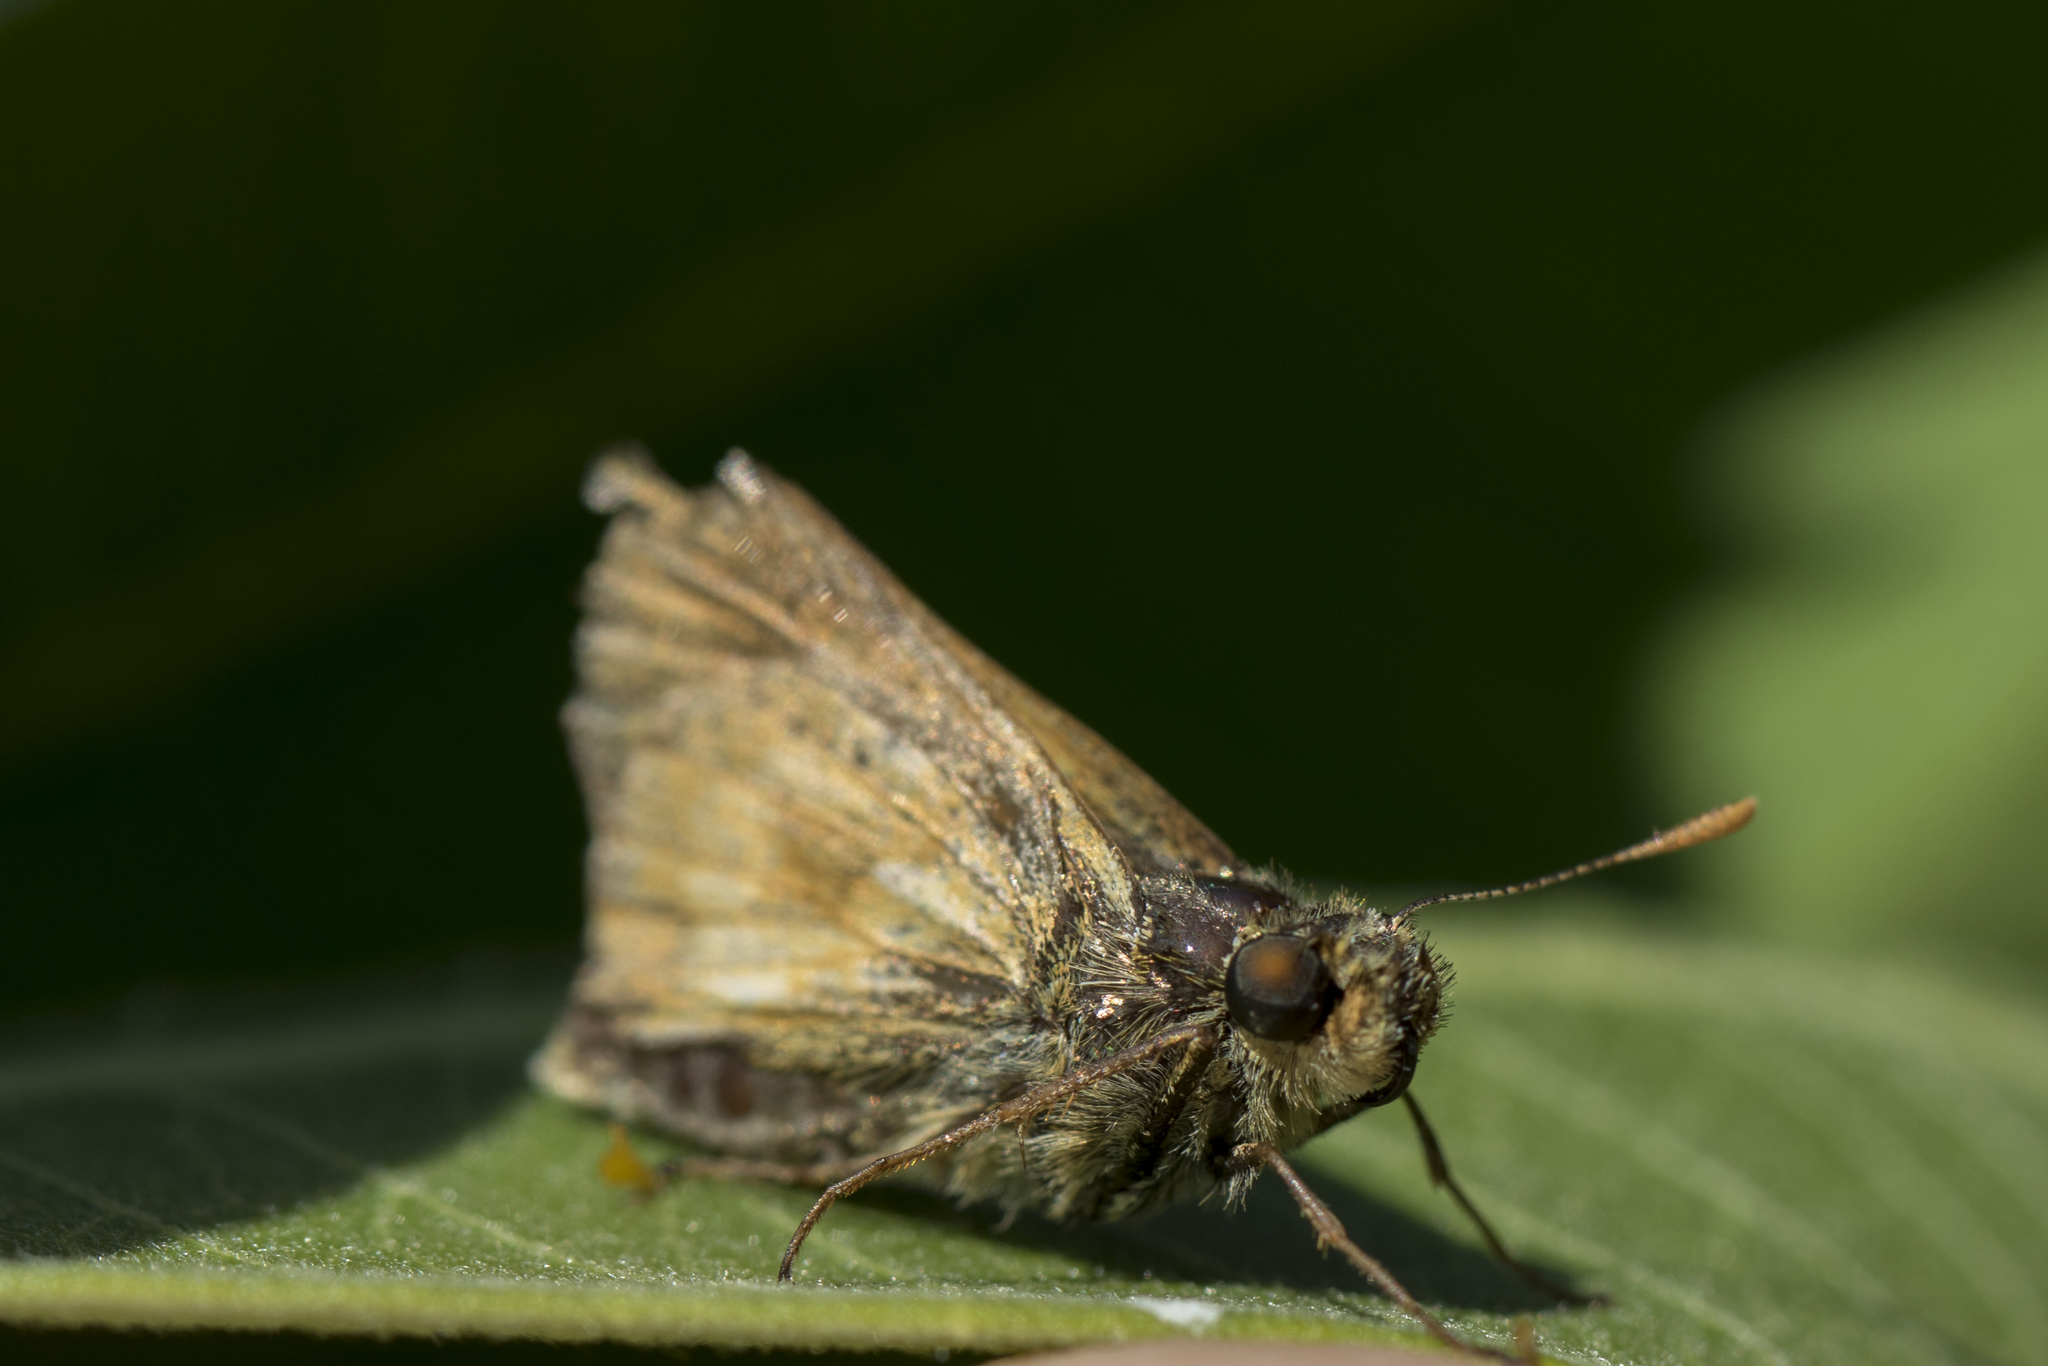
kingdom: Animalia
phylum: Arthropoda
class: Insecta
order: Lepidoptera
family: Hesperiidae
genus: Polites
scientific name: Polites mystic
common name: Long dash
